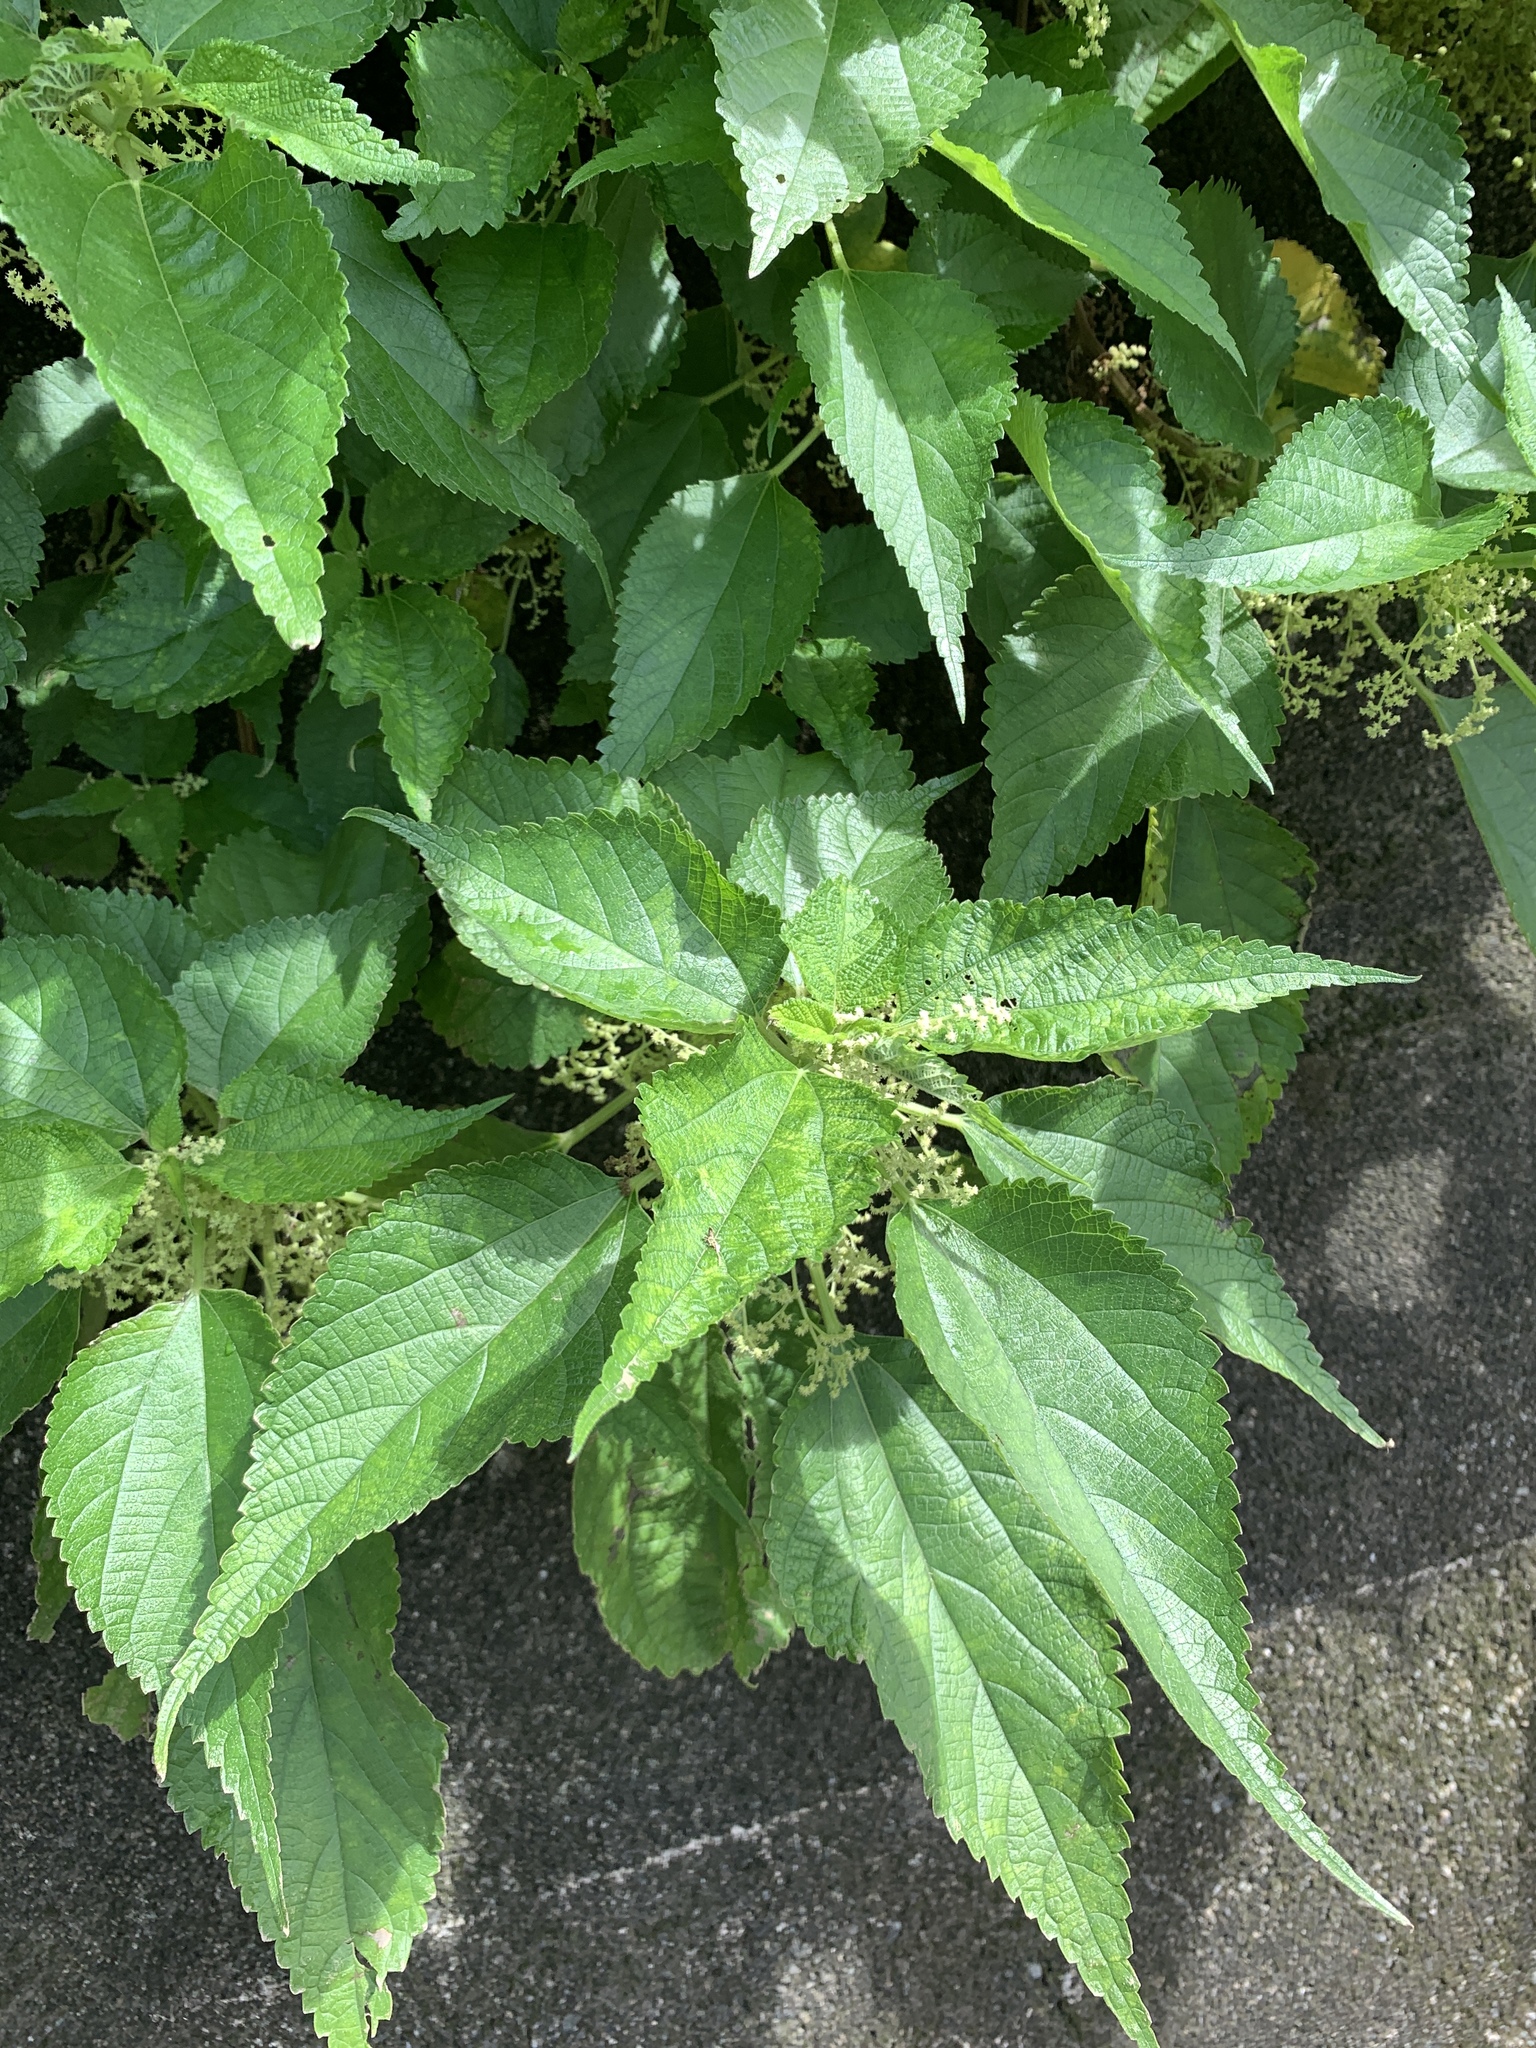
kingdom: Plantae
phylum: Tracheophyta
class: Magnoliopsida
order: Rosales
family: Urticaceae
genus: Boehmeria
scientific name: Boehmeria nivea
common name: Ramie chinese grass
